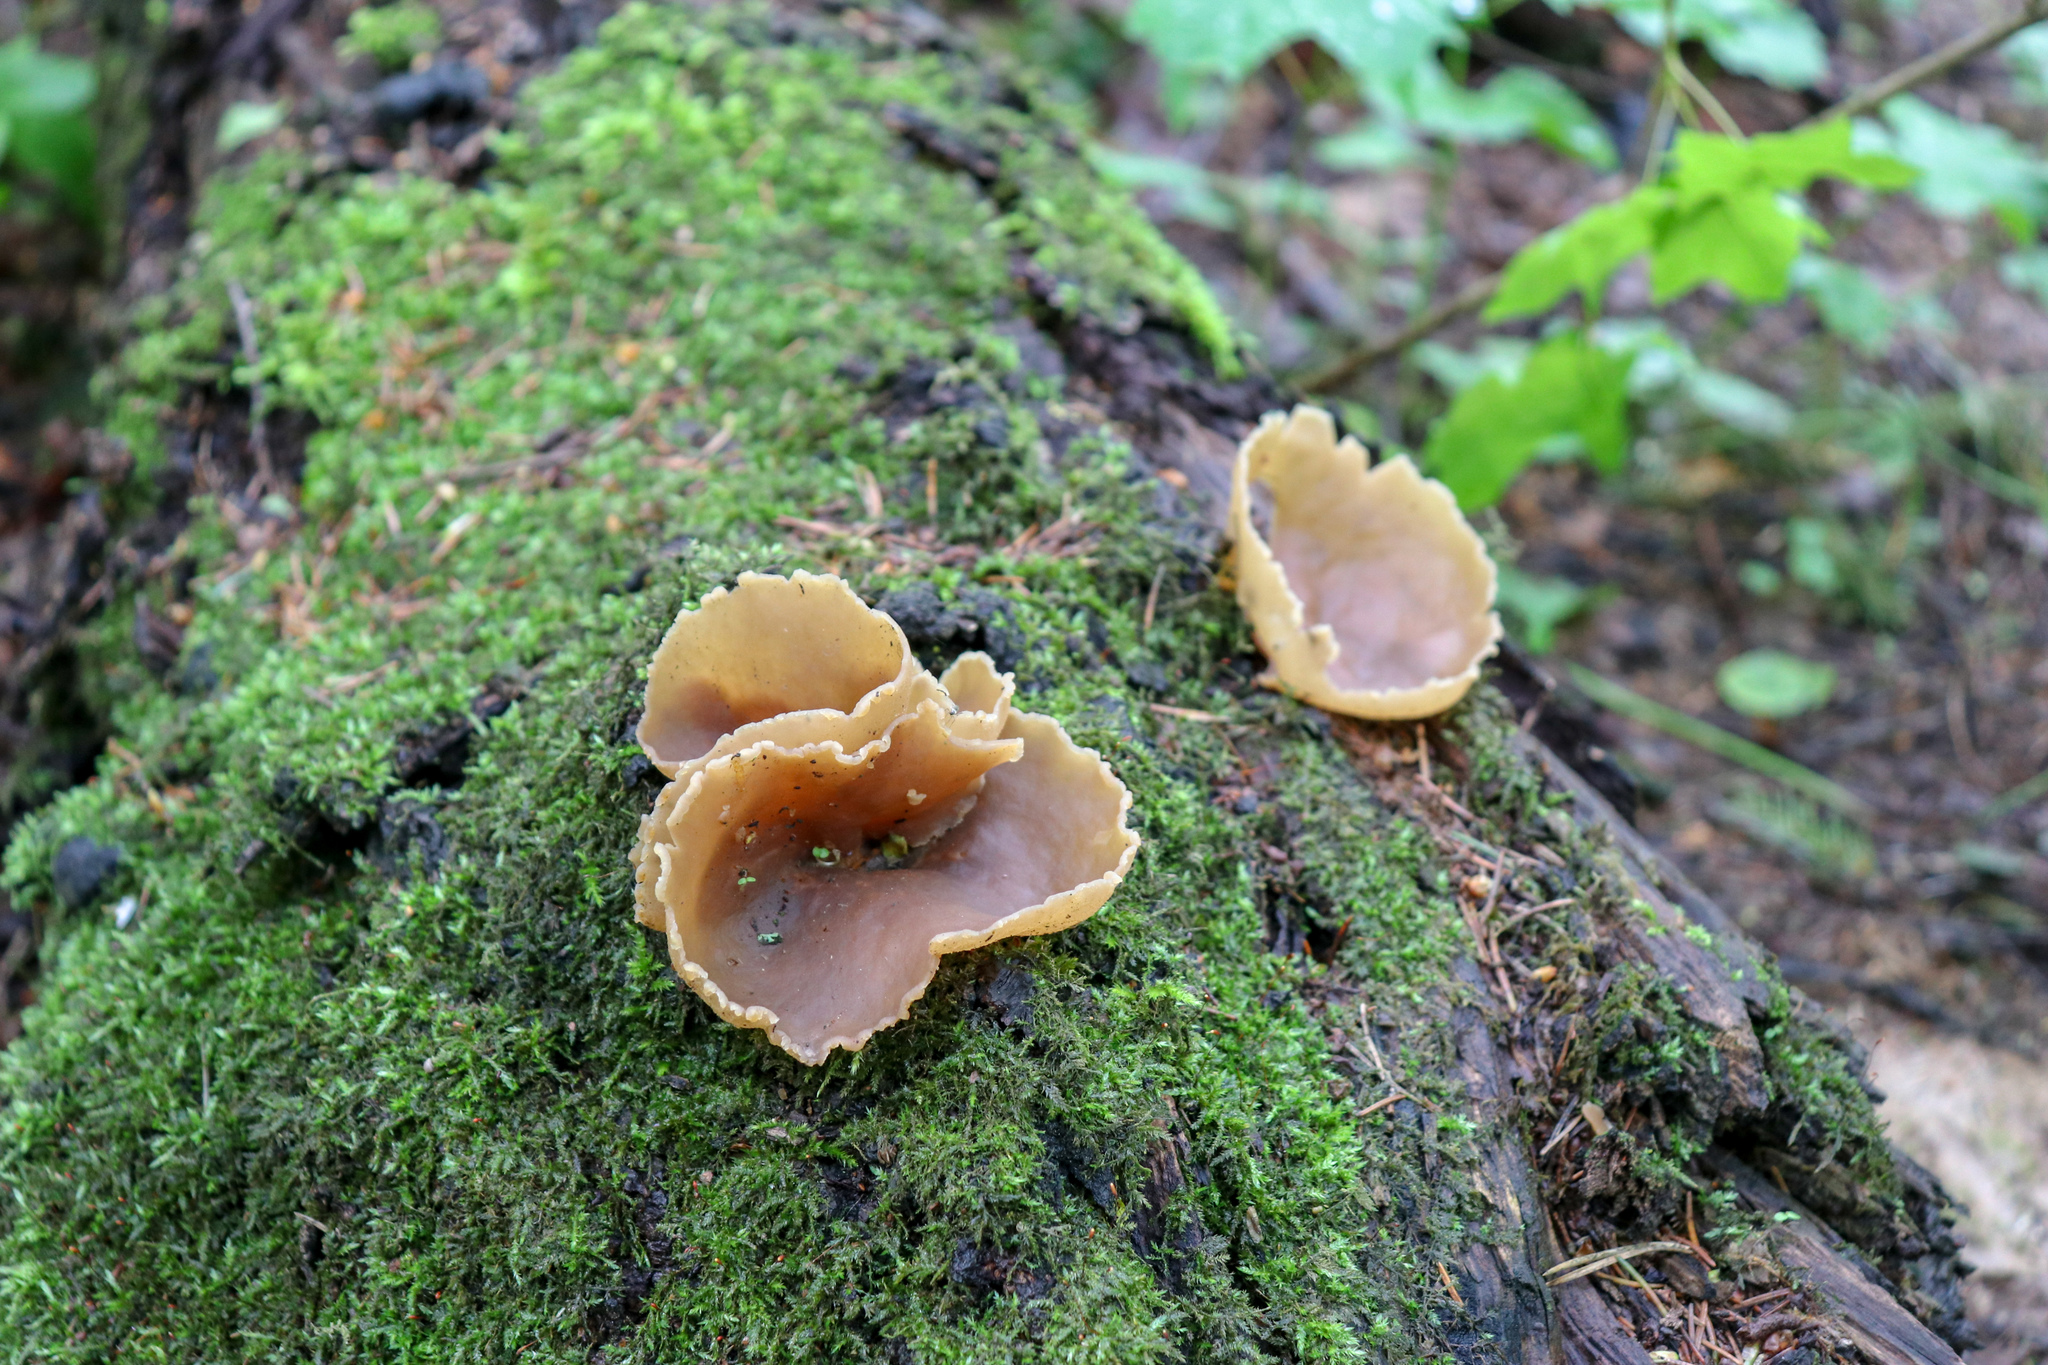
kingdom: Fungi
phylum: Ascomycota
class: Pezizomycetes
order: Pezizales
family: Pezizaceae
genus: Peziza
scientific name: Peziza varia
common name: Layered cup
